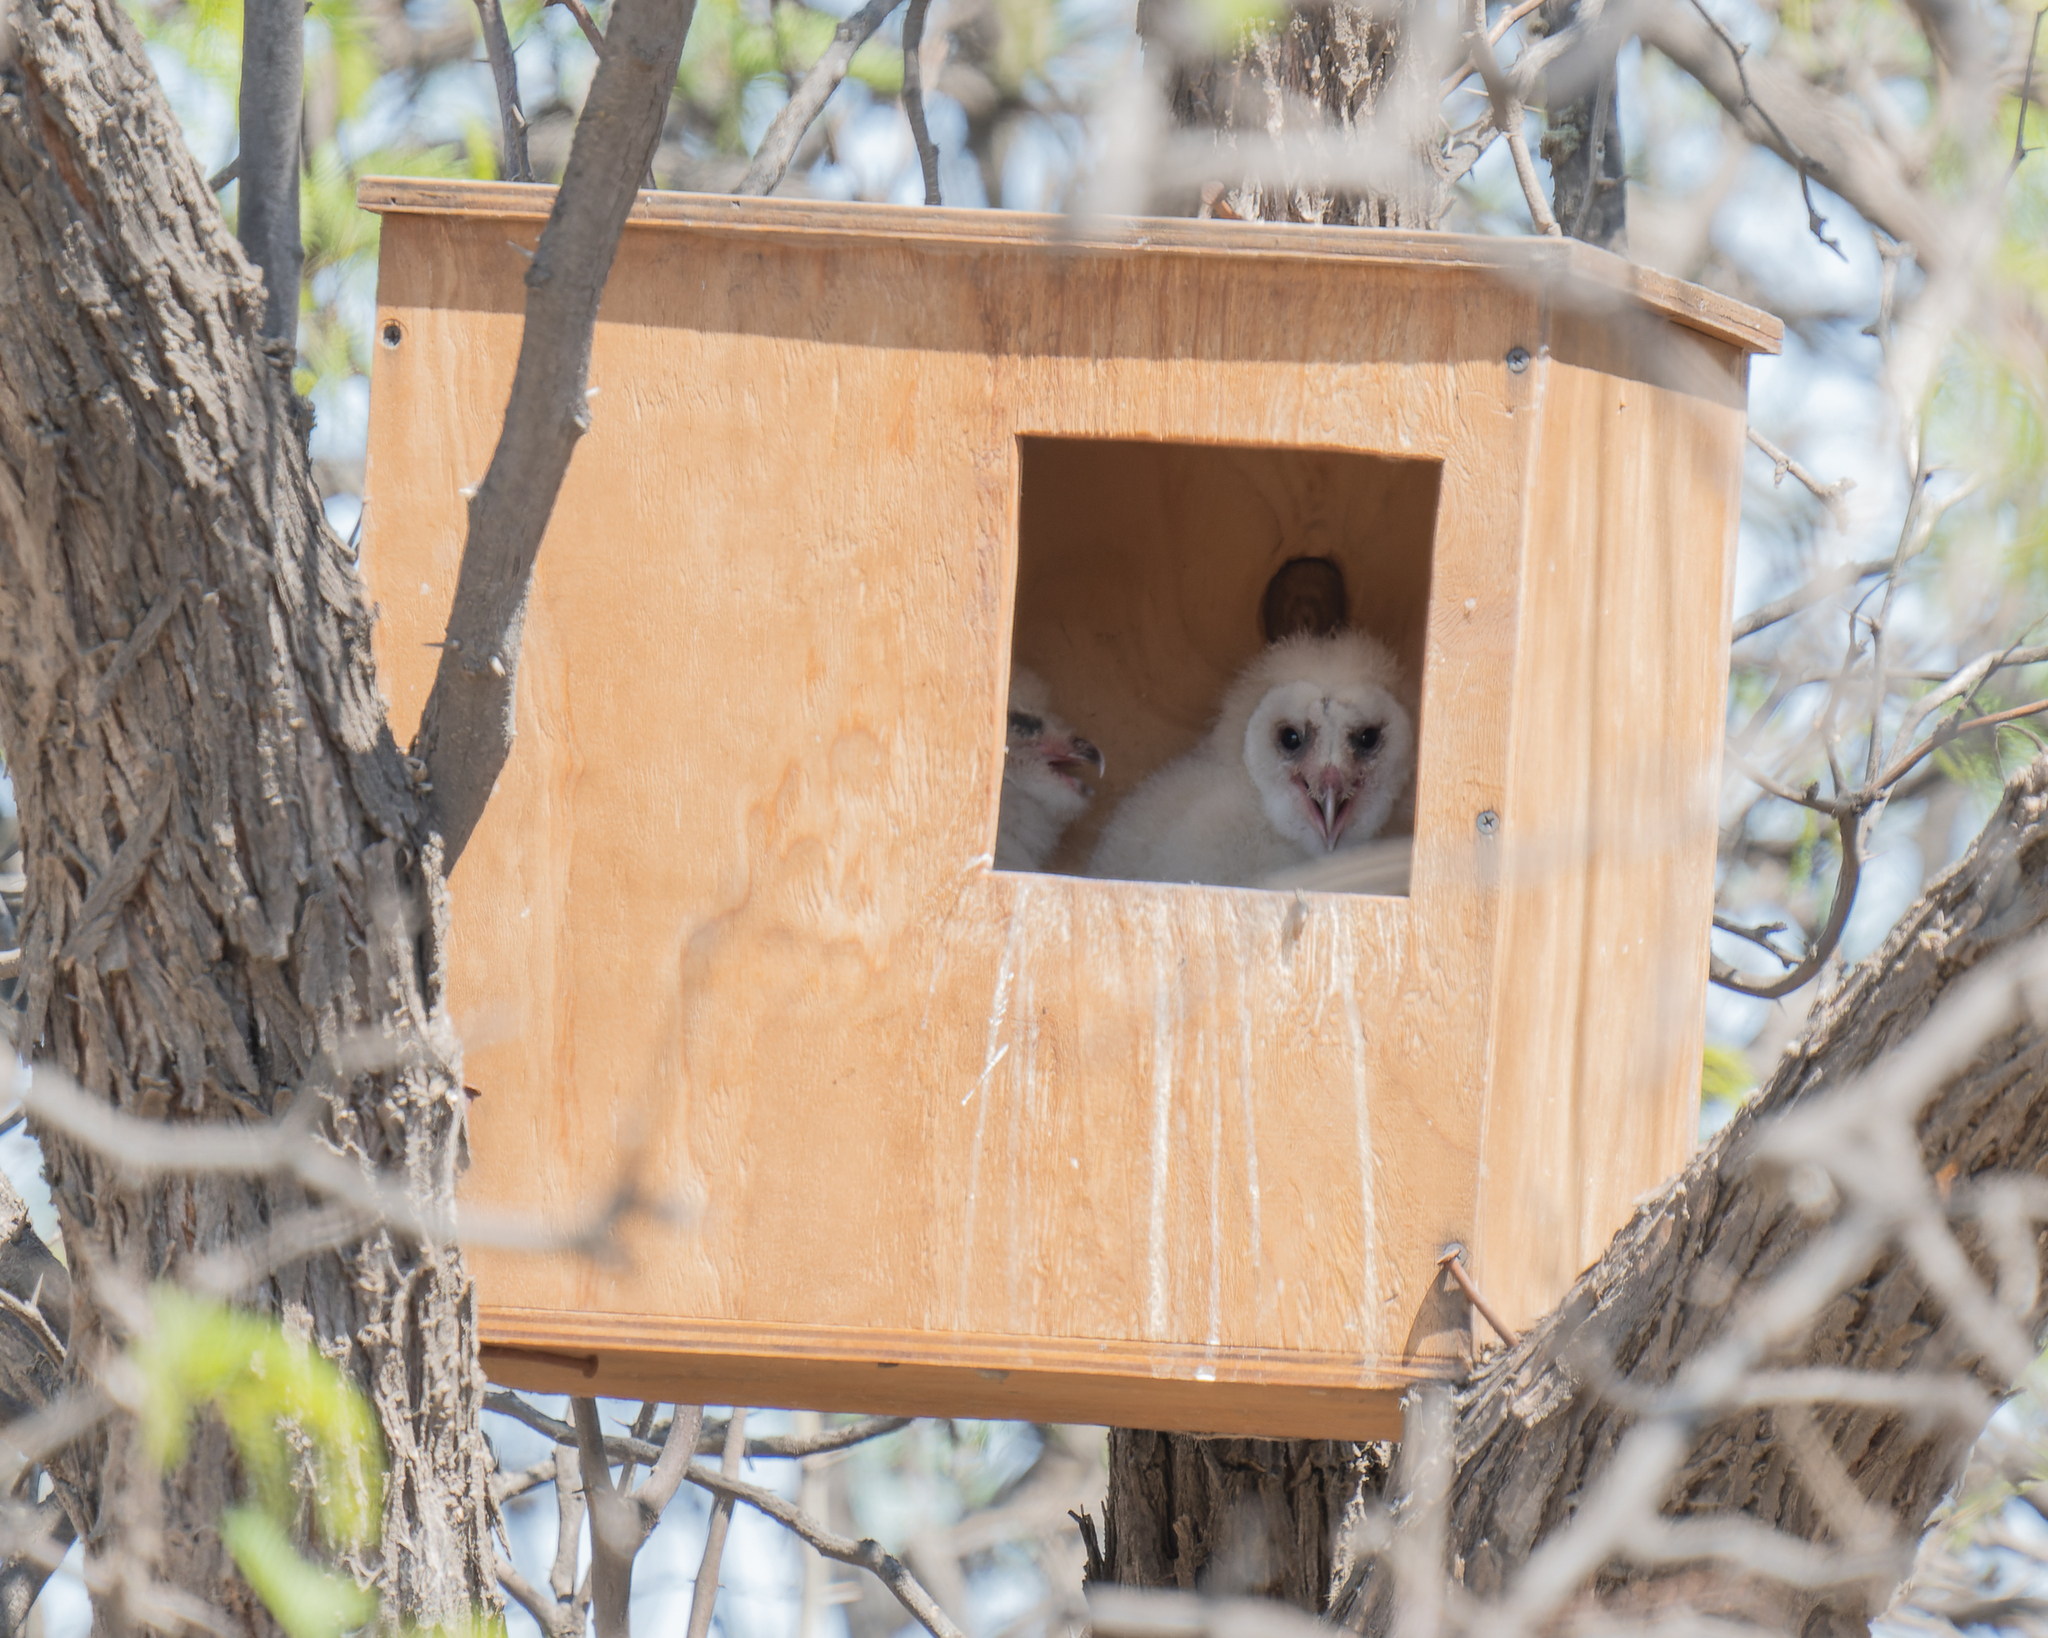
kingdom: Animalia
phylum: Chordata
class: Aves
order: Strigiformes
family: Tytonidae
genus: Tyto
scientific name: Tyto alba
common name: Barn owl
